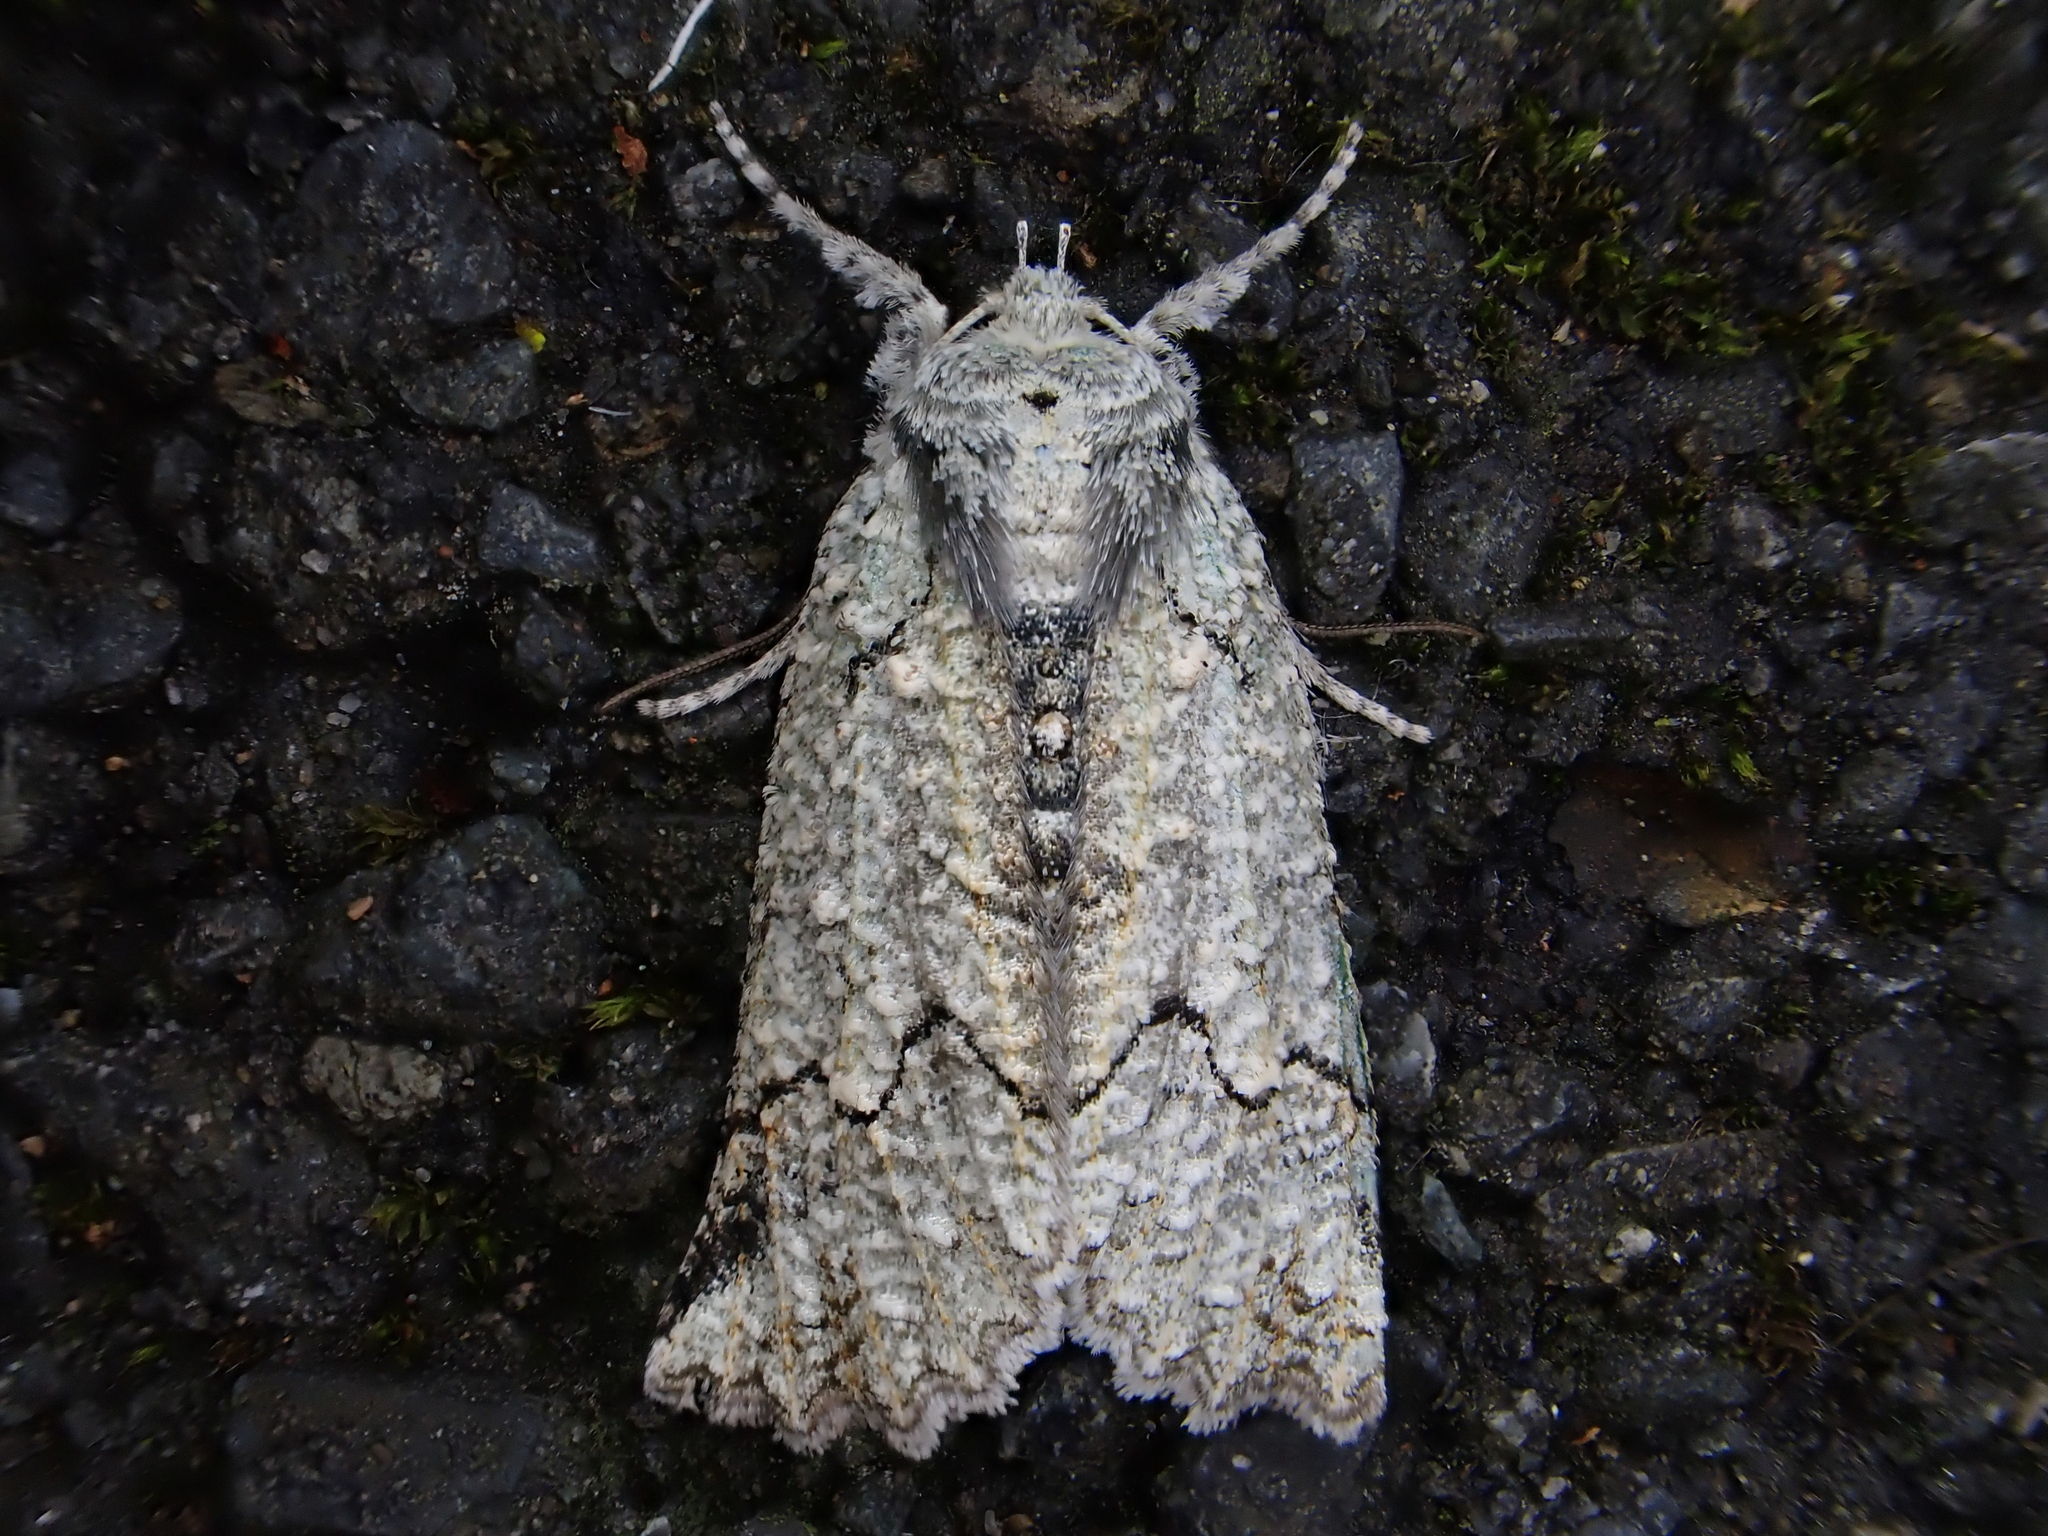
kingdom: Animalia
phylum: Arthropoda
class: Insecta
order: Lepidoptera
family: Geometridae
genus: Declana
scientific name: Declana floccosa
